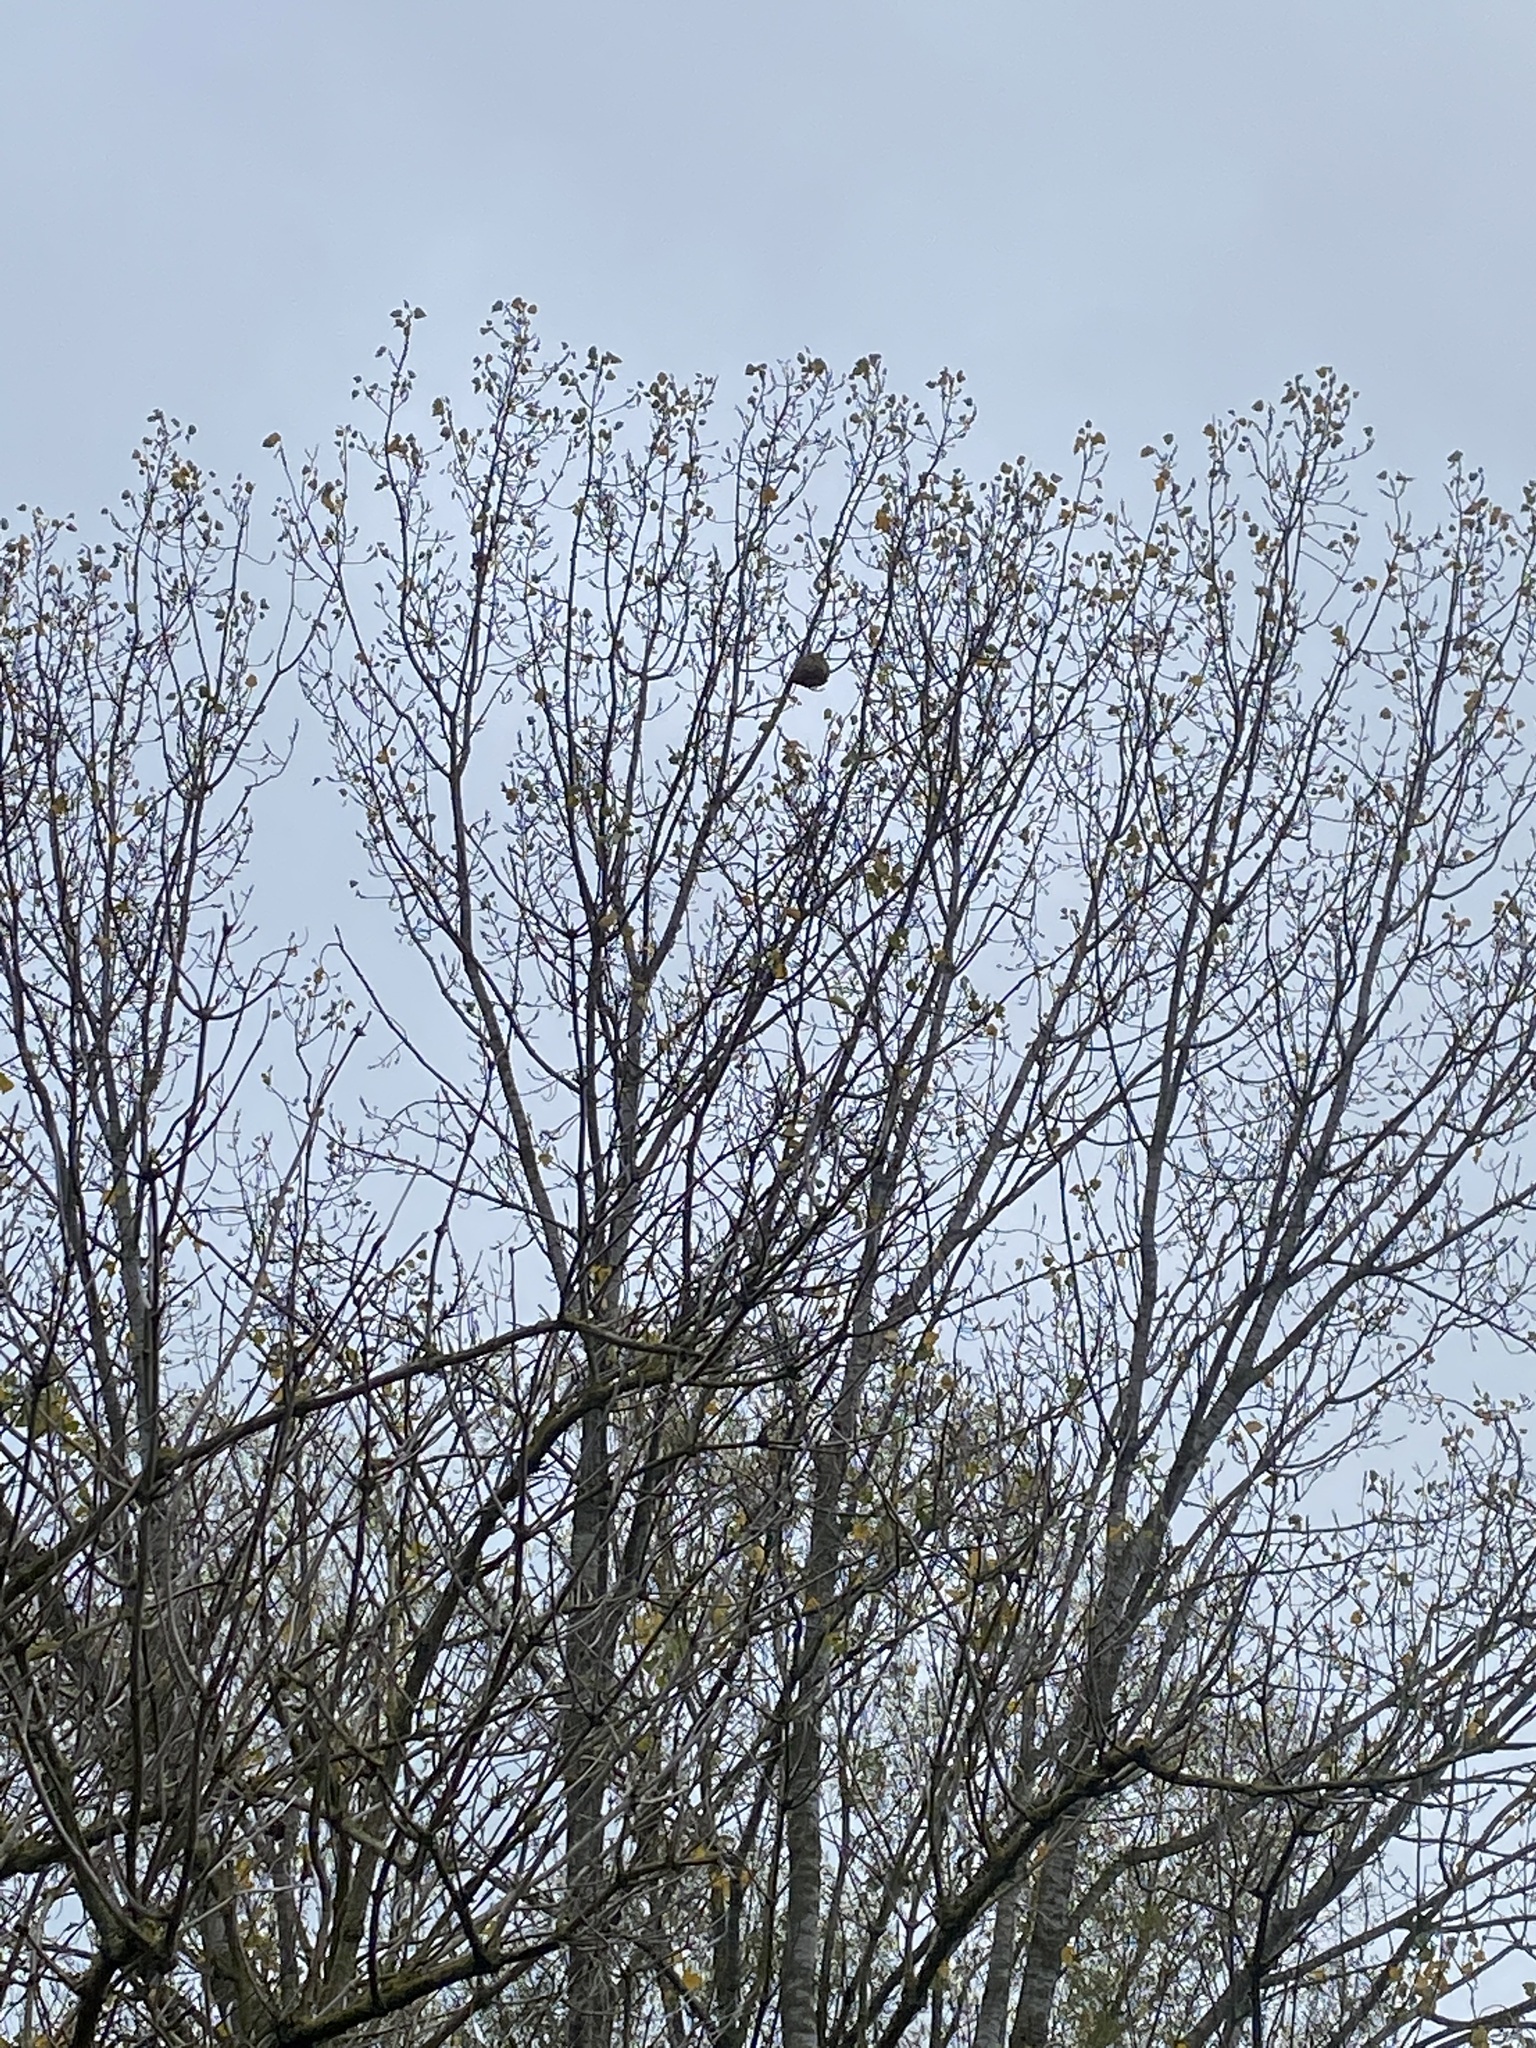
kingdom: Animalia
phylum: Arthropoda
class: Insecta
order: Hymenoptera
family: Vespidae
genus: Vespa
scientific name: Vespa velutina
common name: Asian hornet
